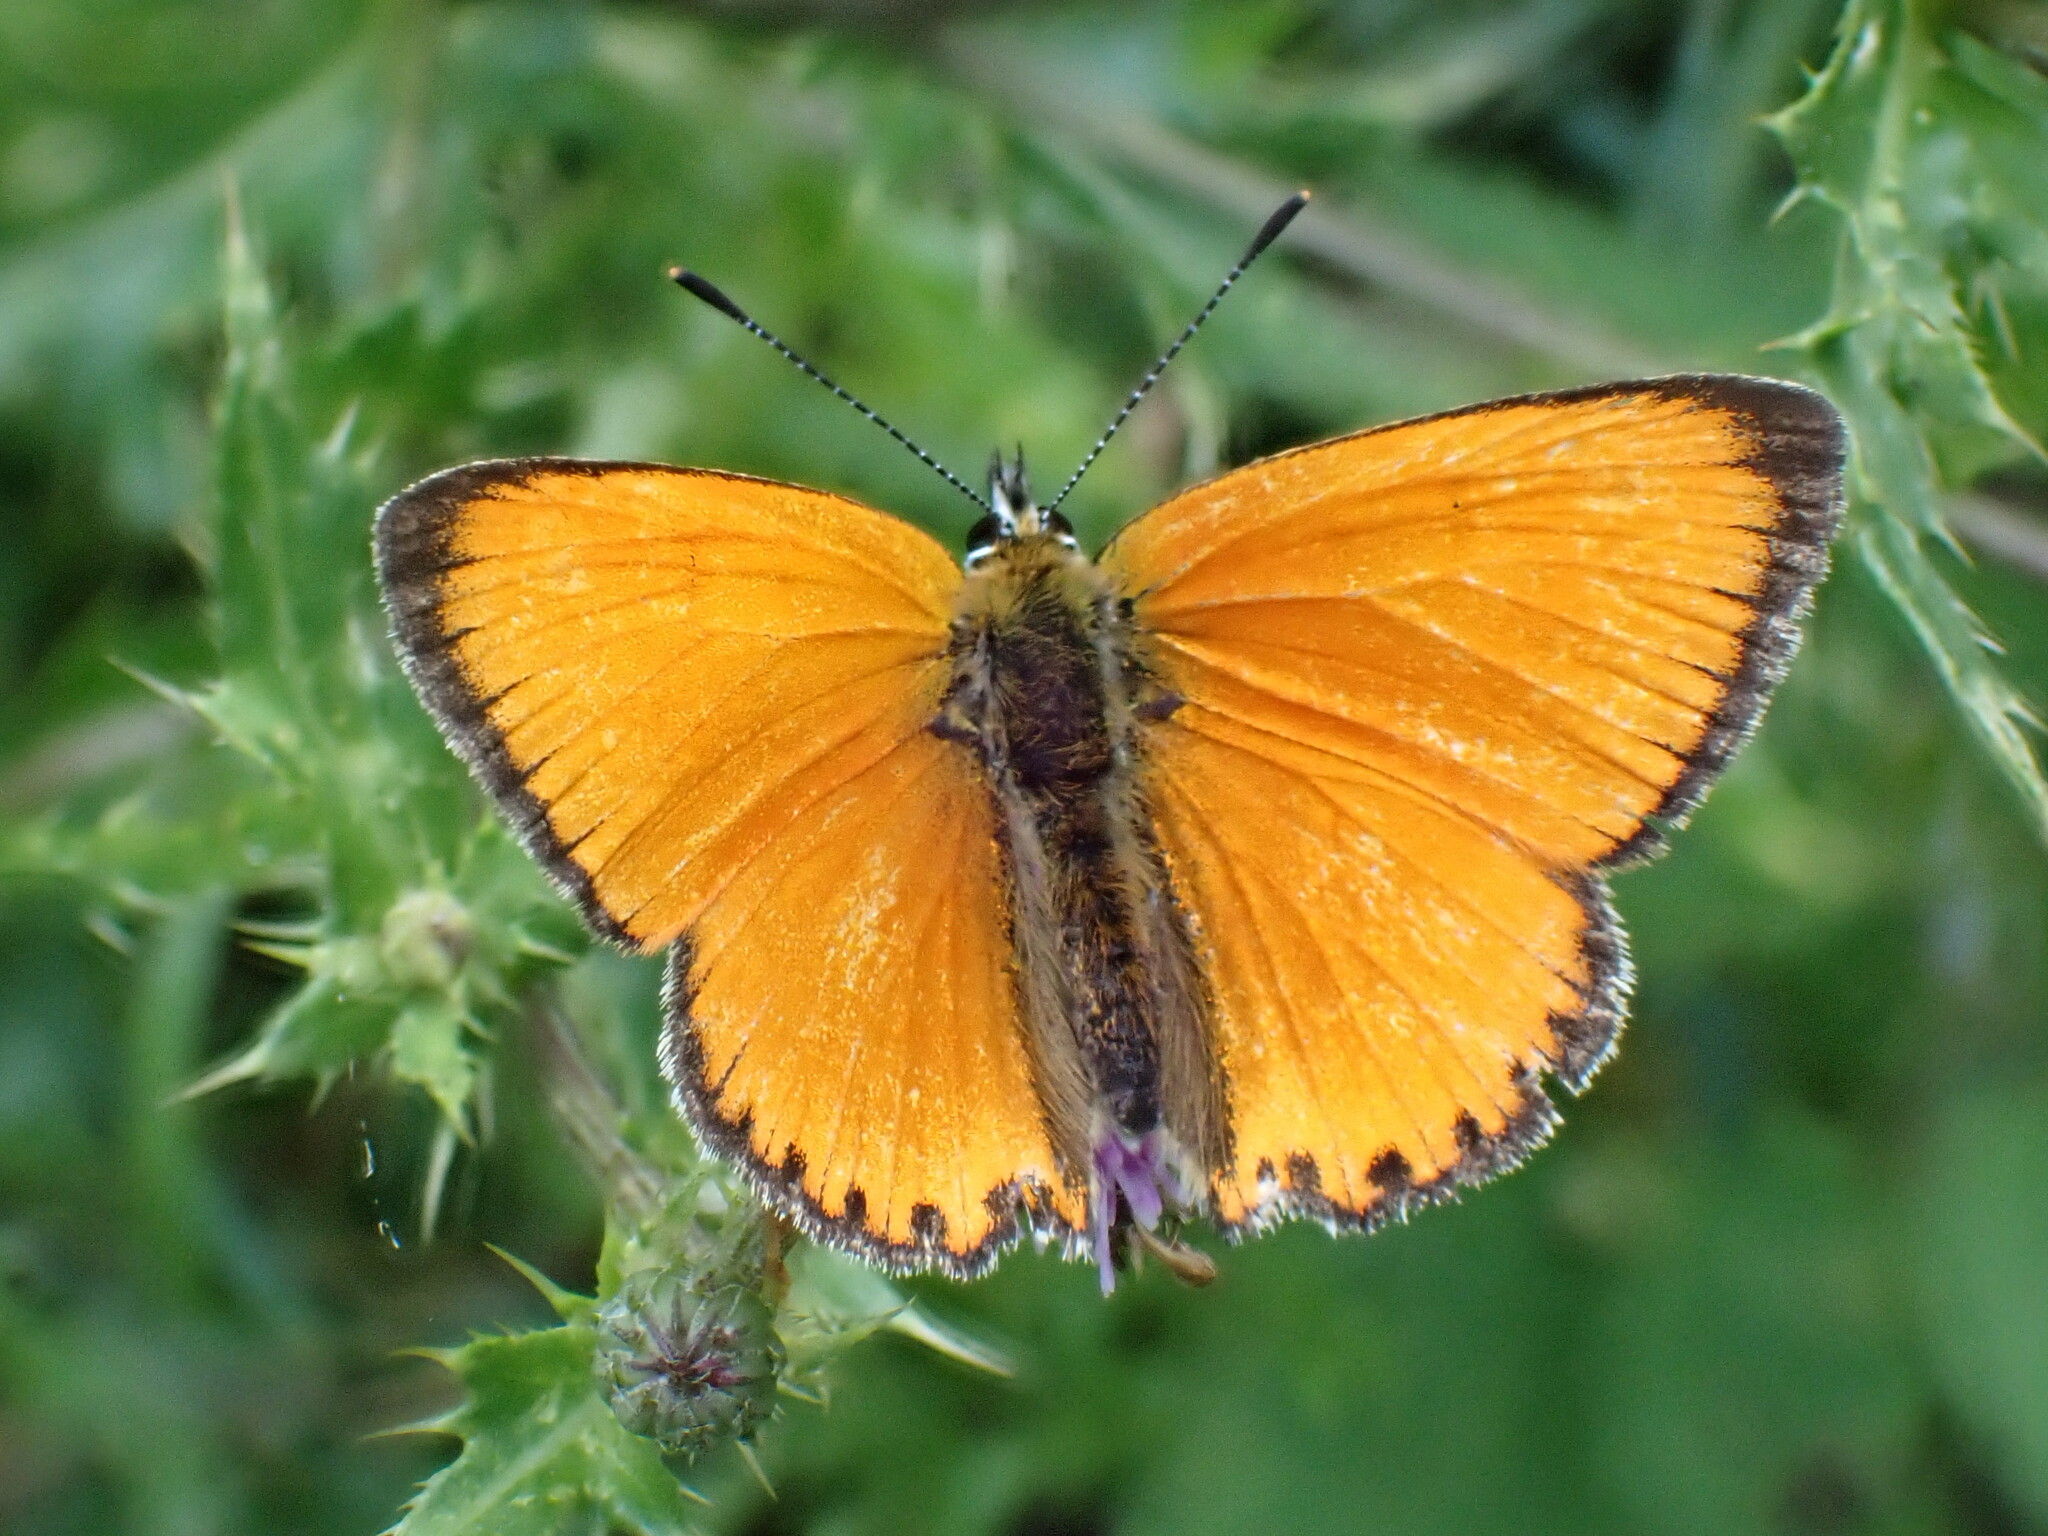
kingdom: Animalia
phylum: Arthropoda
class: Insecta
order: Lepidoptera
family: Lycaenidae
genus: Lycaena
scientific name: Lycaena virgaureae
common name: Scarce copper
